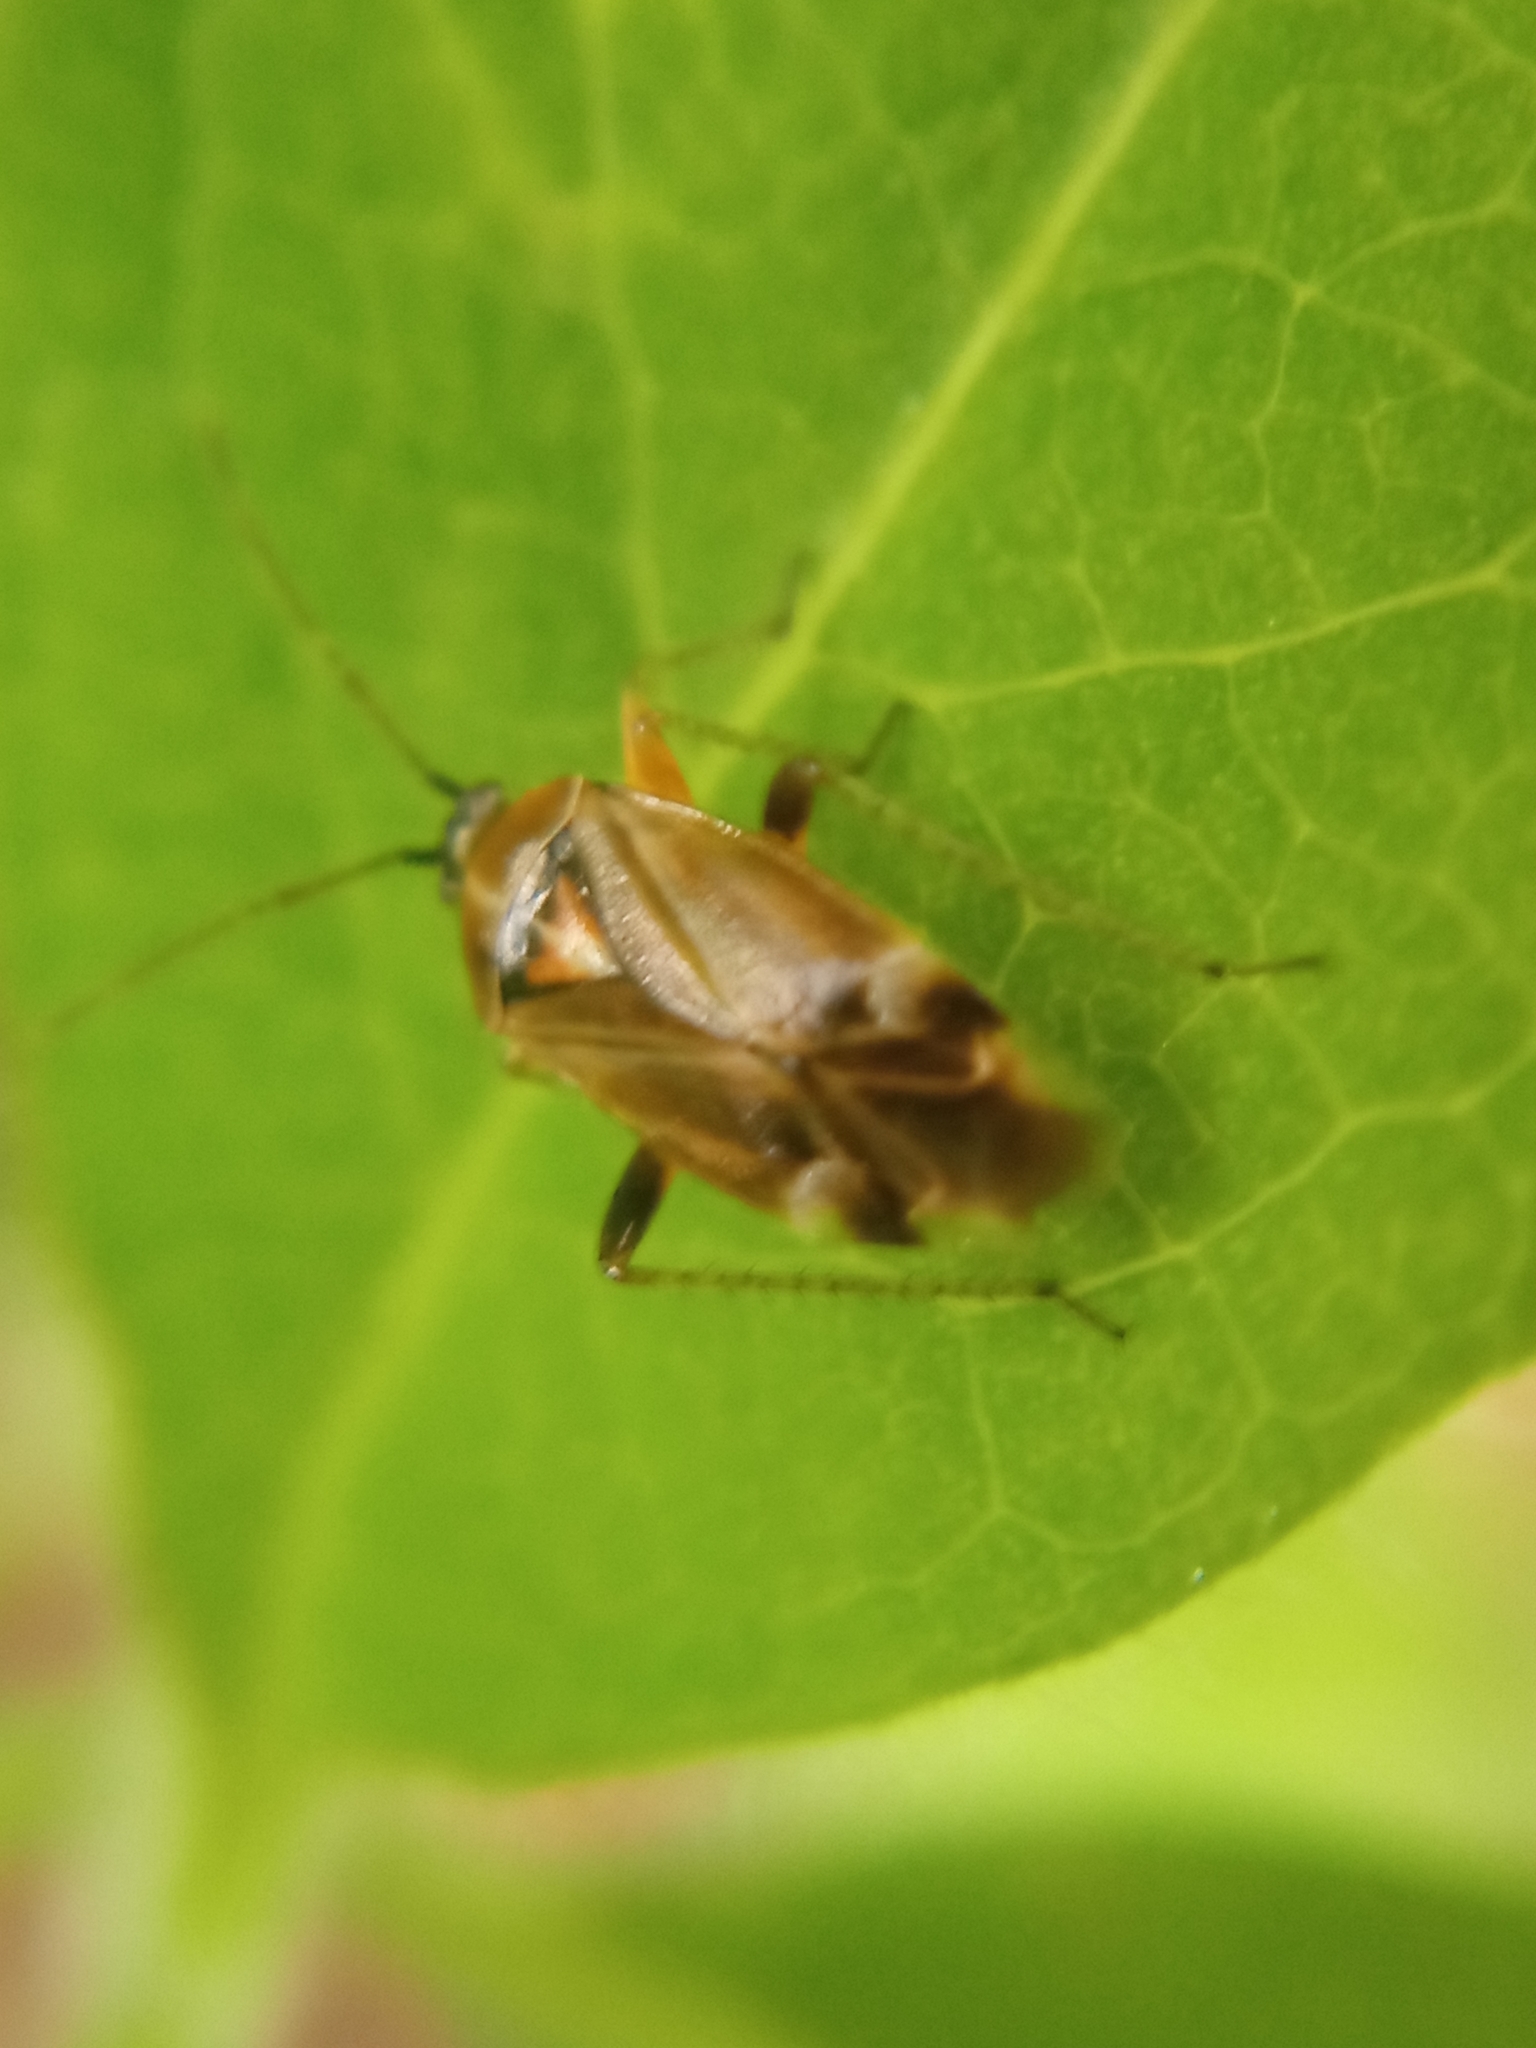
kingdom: Animalia
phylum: Arthropoda
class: Insecta
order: Hemiptera
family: Miridae
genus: Harpocera
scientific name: Harpocera thoracica
